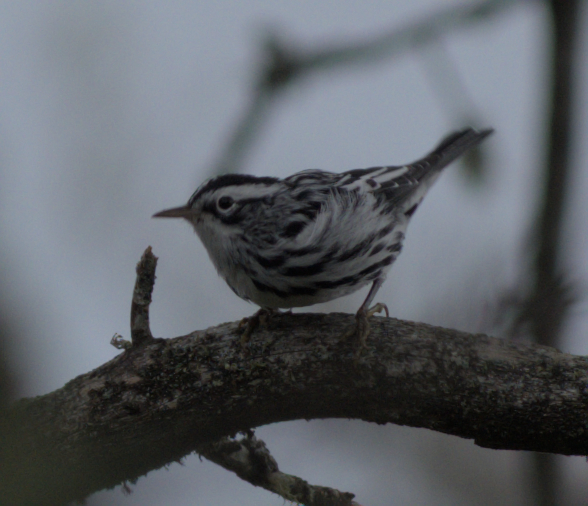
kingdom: Animalia
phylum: Chordata
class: Aves
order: Passeriformes
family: Parulidae
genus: Mniotilta
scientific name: Mniotilta varia
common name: Black-and-white warbler
